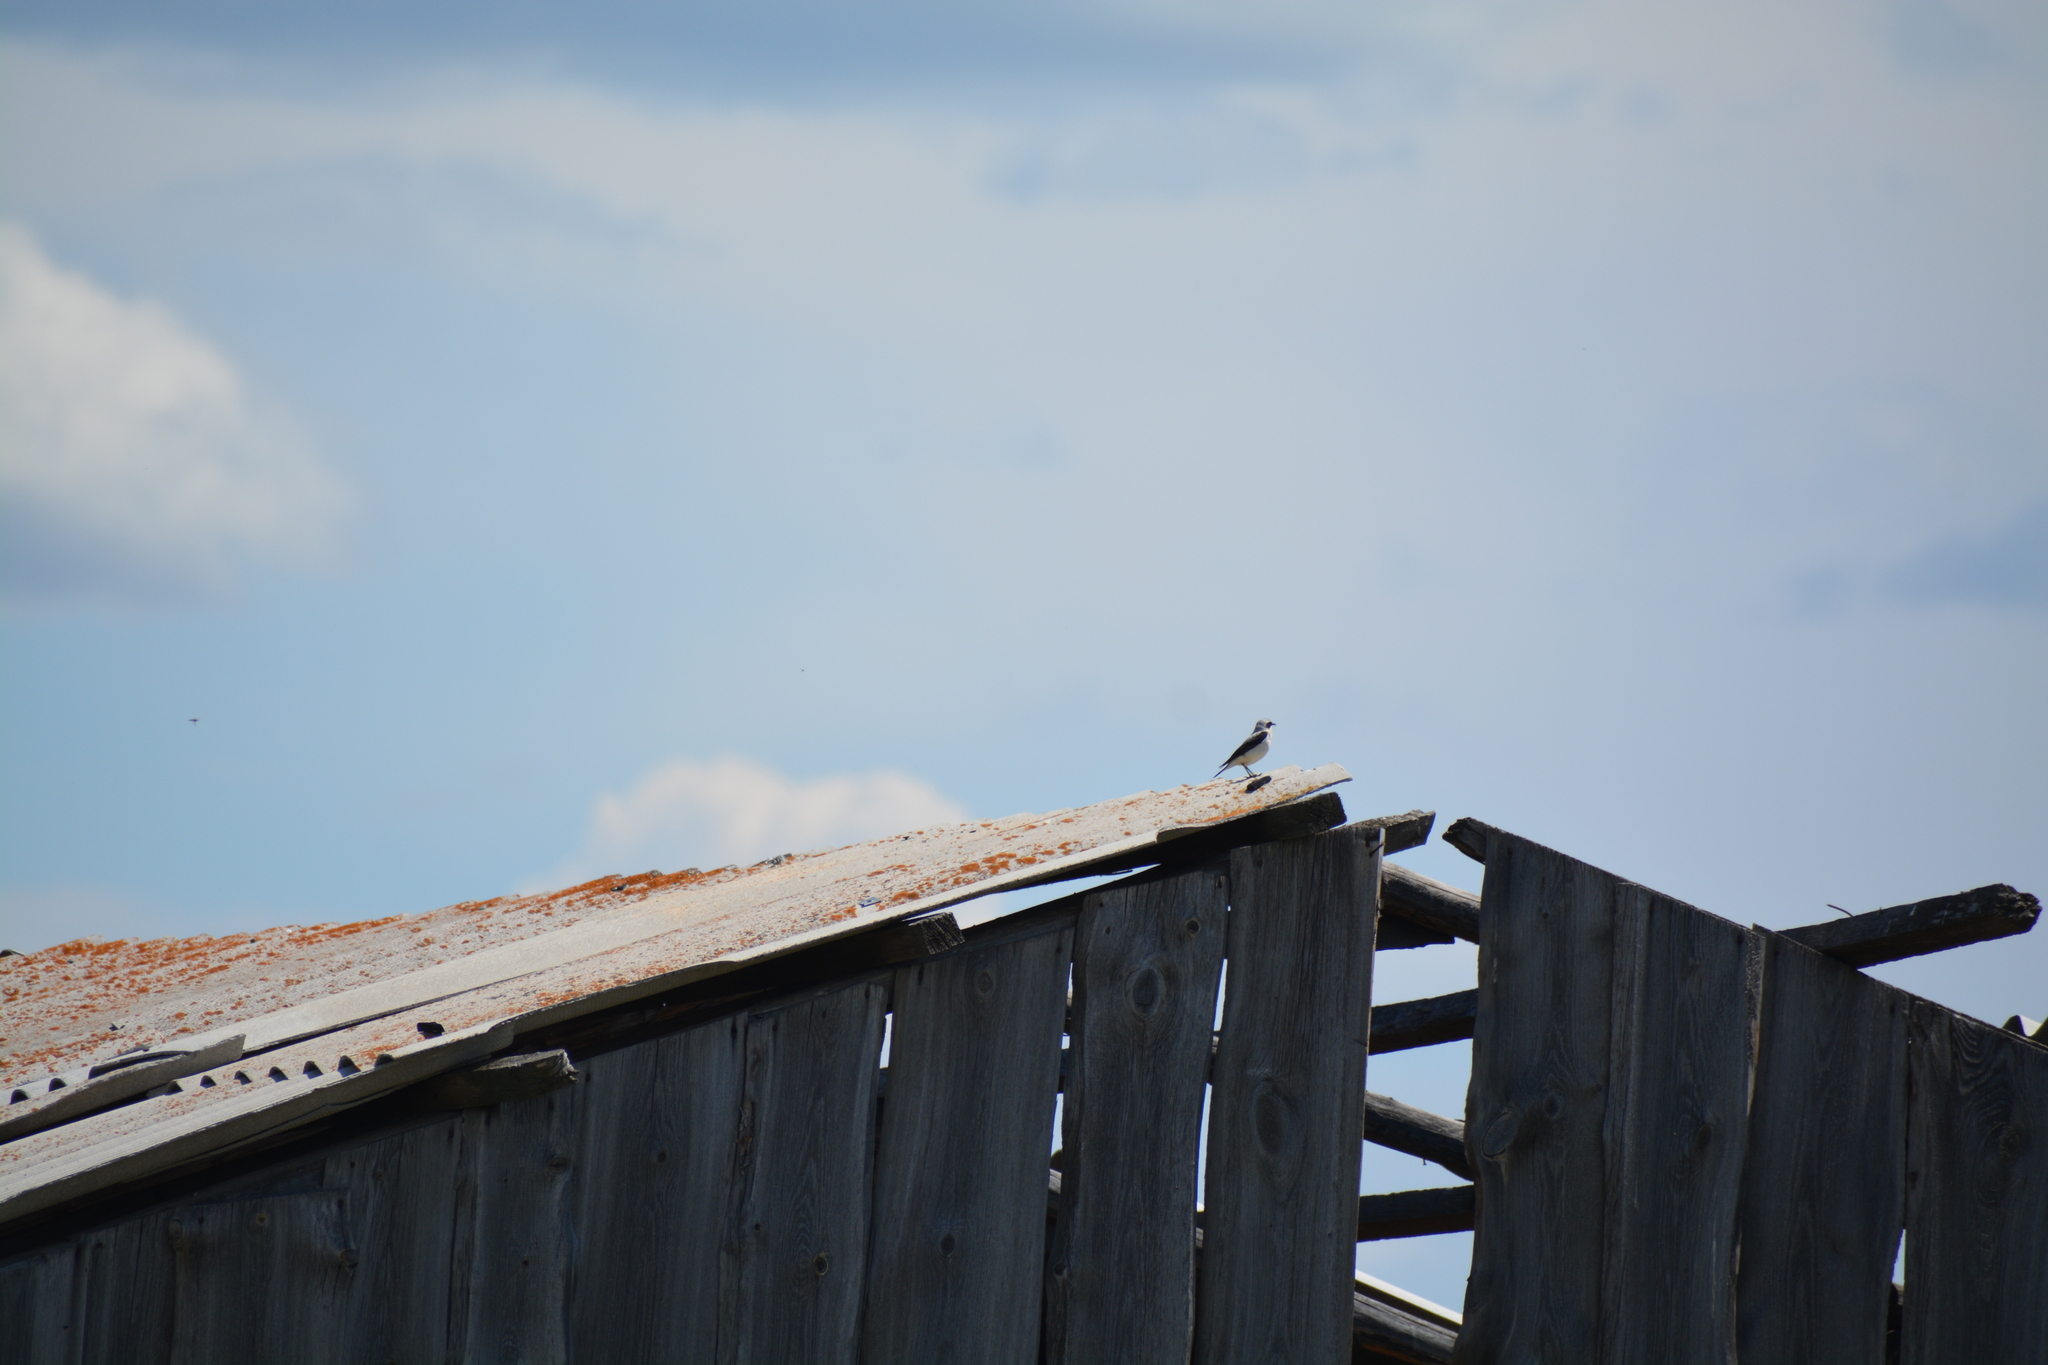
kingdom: Animalia
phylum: Chordata
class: Aves
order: Passeriformes
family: Muscicapidae
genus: Oenanthe
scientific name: Oenanthe oenanthe
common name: Northern wheatear
